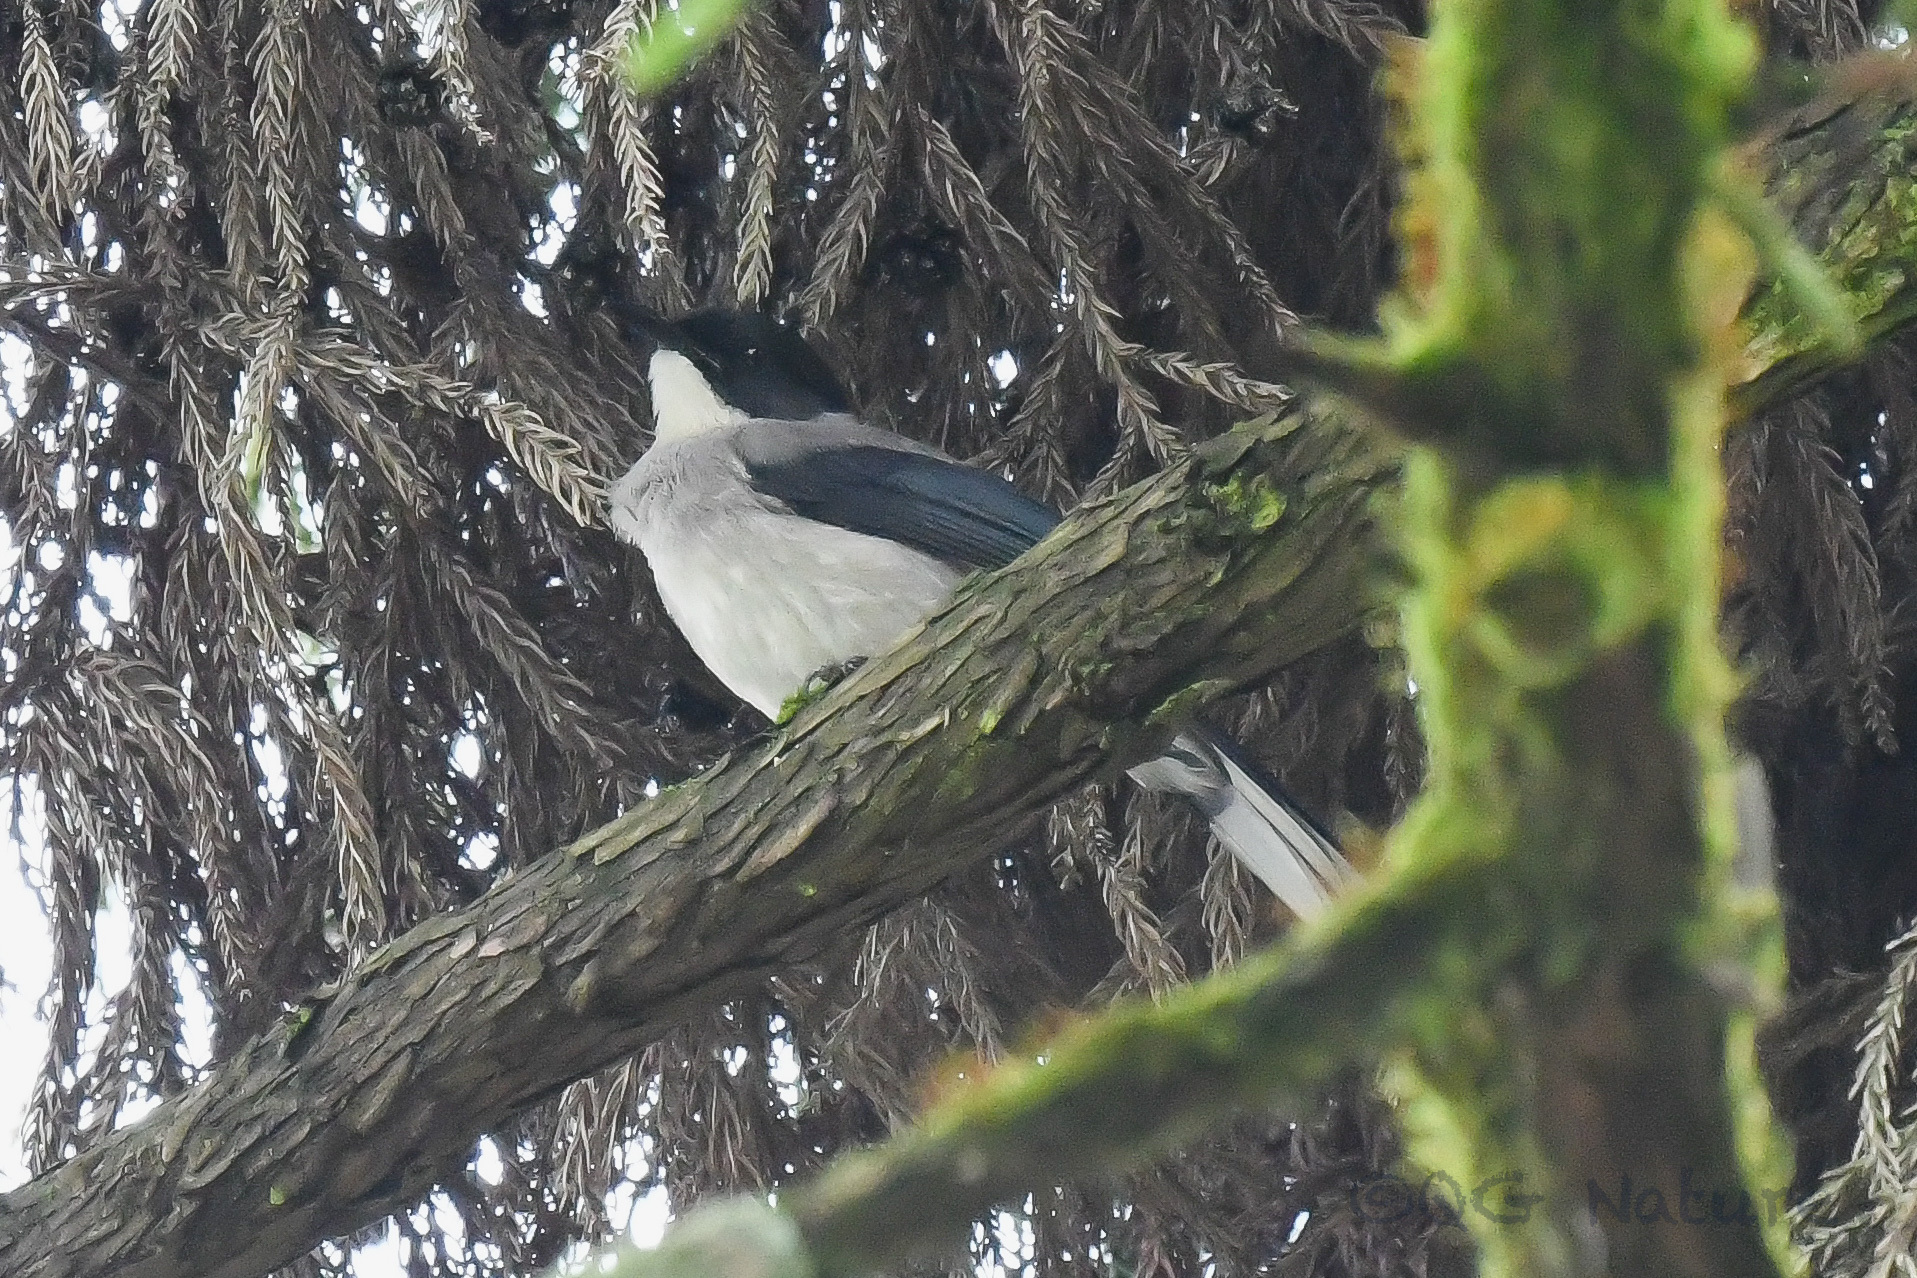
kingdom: Animalia
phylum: Chordata
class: Aves
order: Passeriformes
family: Leiothrichidae
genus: Heterophasia
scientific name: Heterophasia desgodinsi
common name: Black-headed sibia
